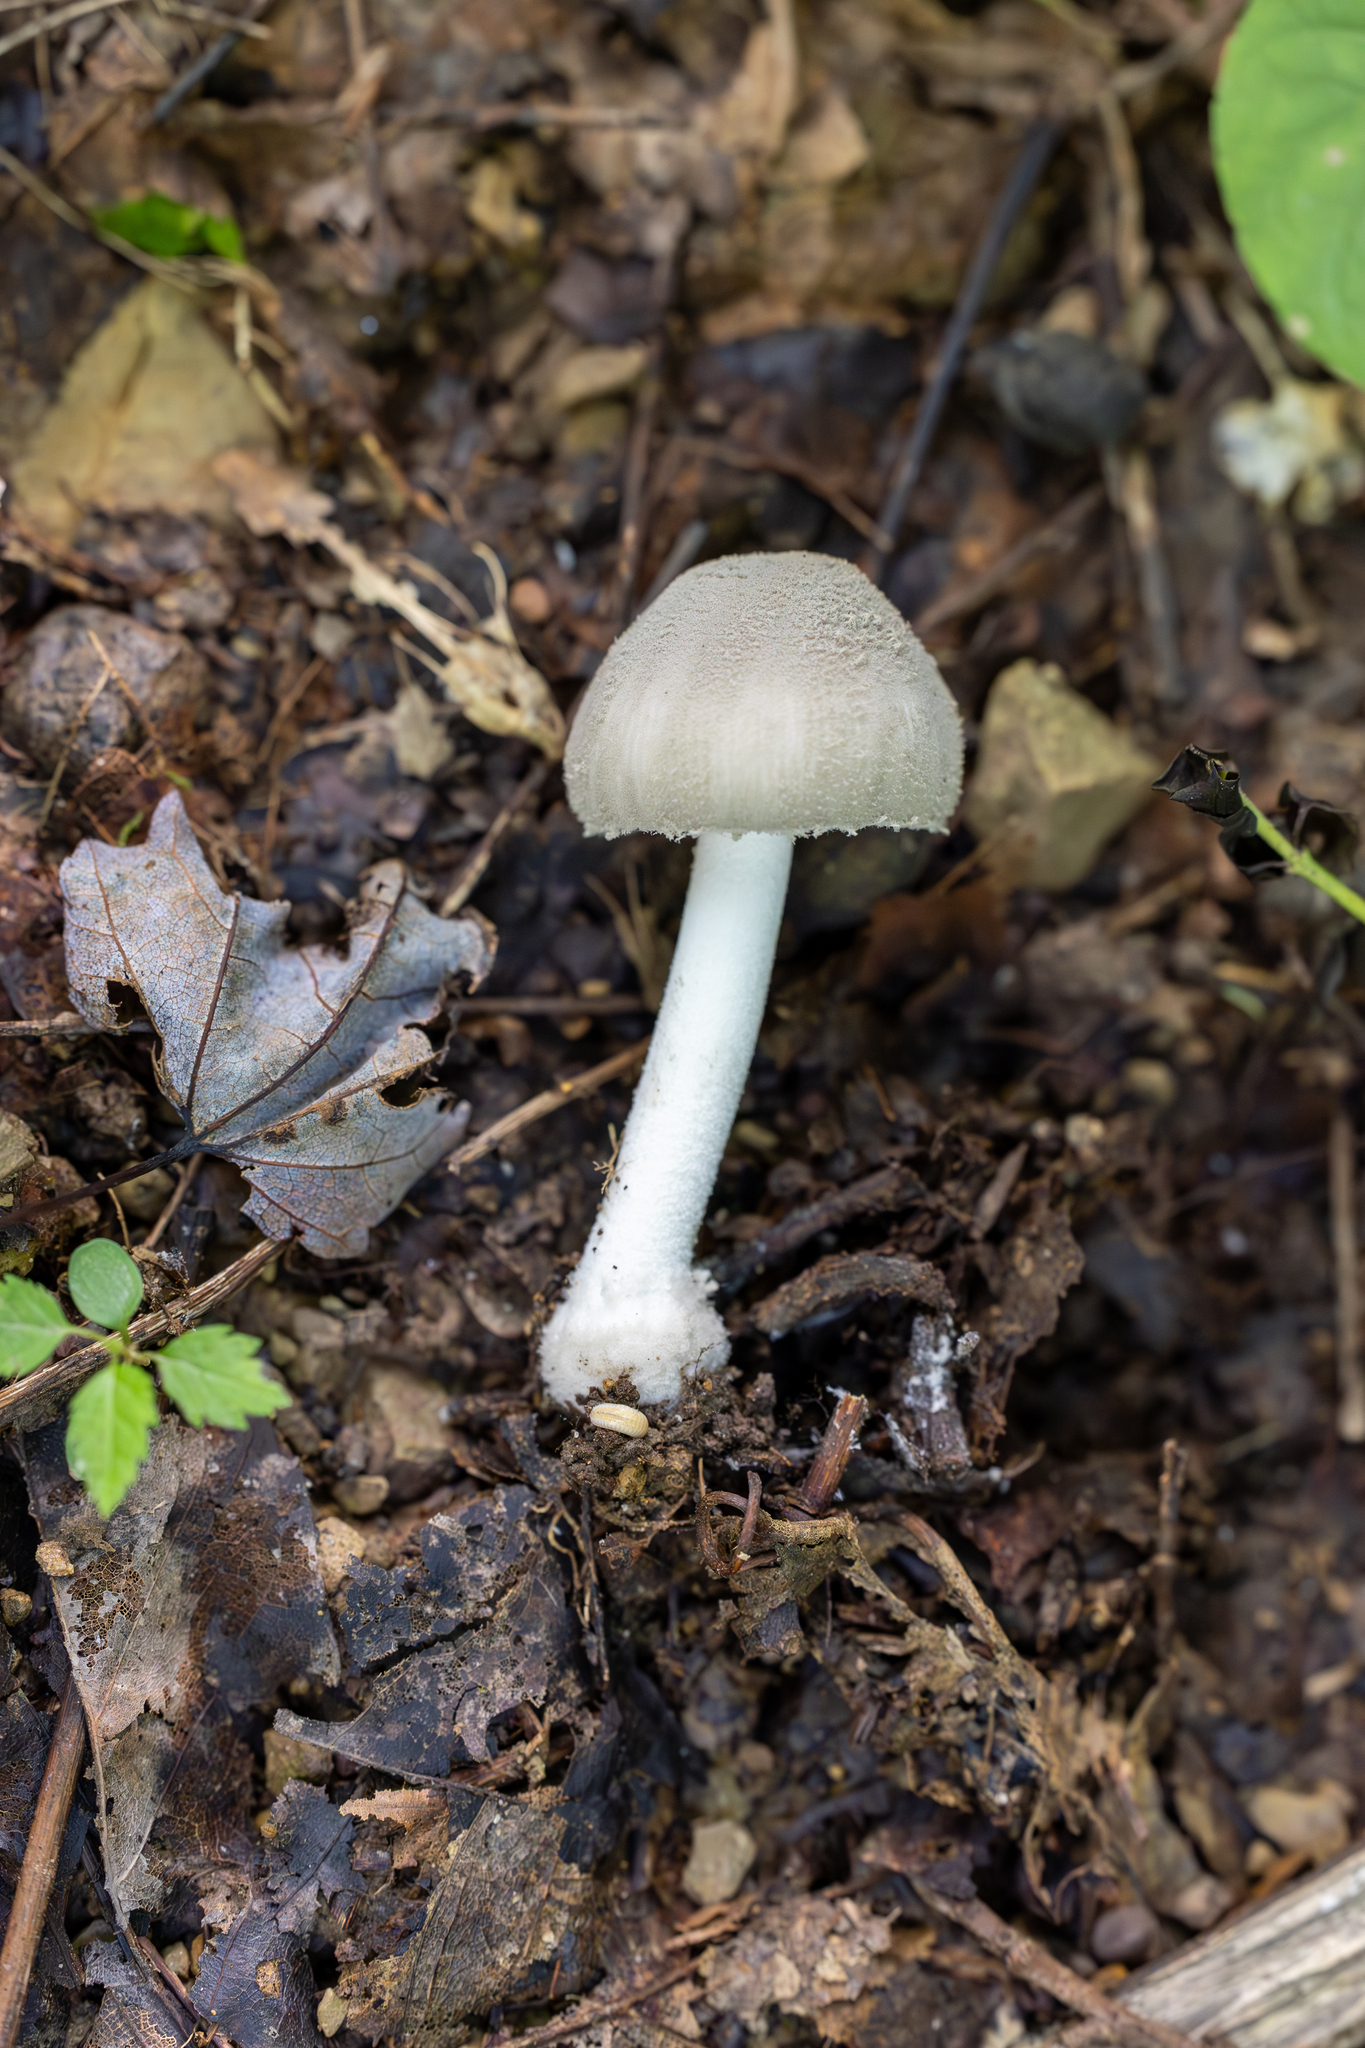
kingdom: Fungi
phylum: Basidiomycota
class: Agaricomycetes
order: Agaricales
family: Amanitaceae
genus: Amanita
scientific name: Amanita farinosa
